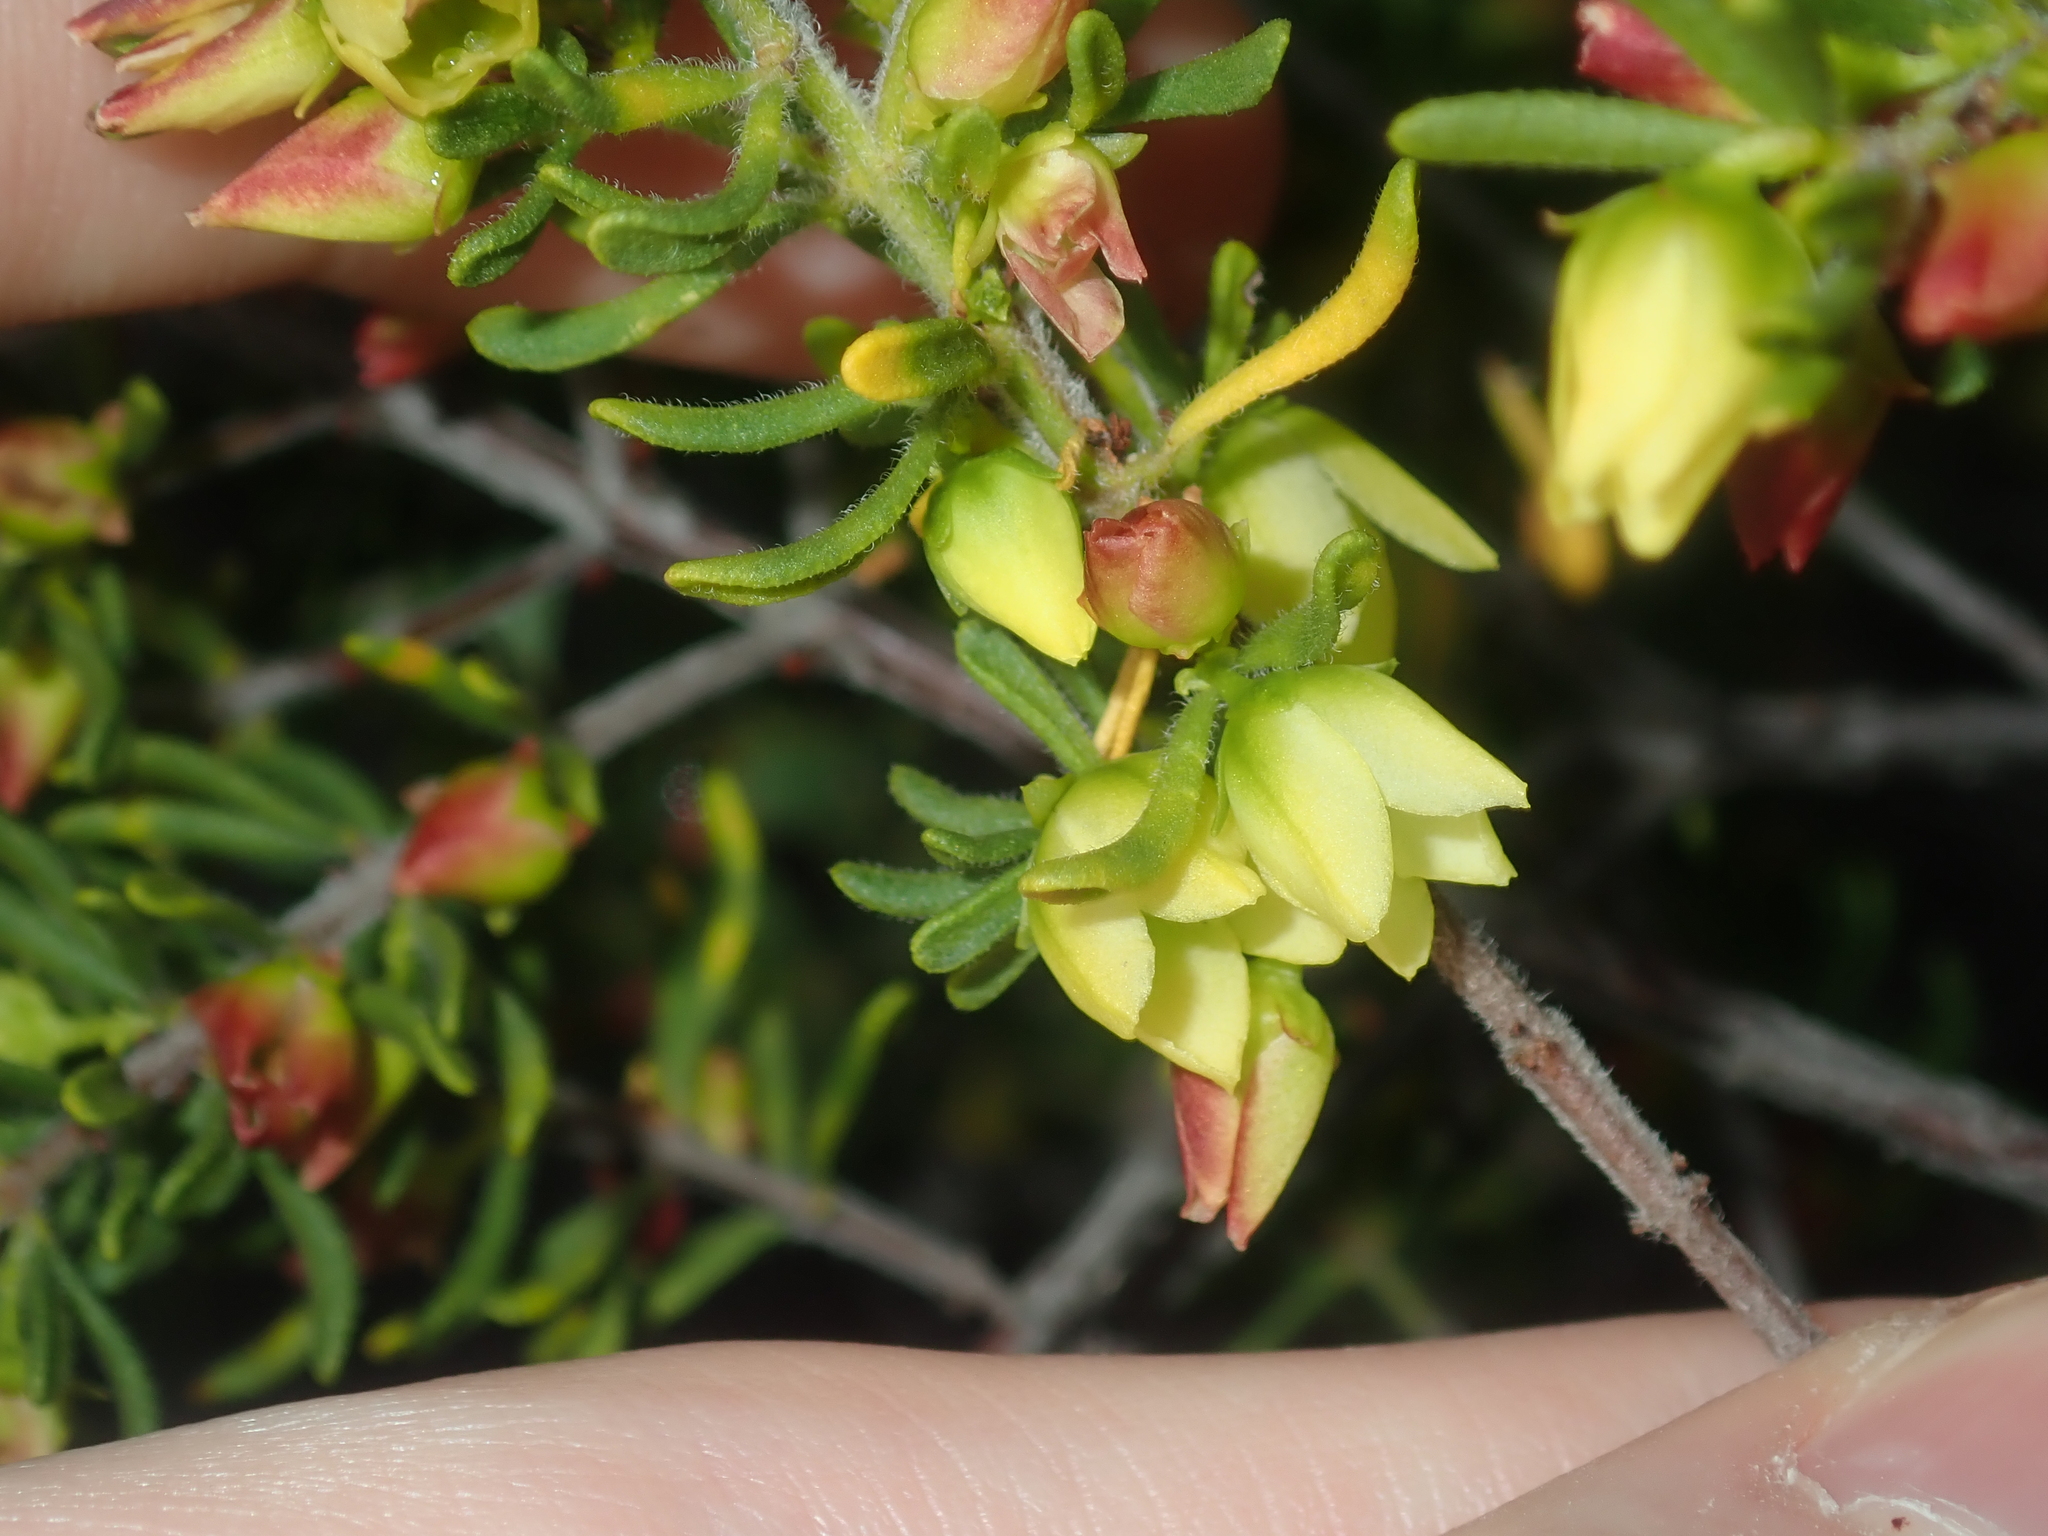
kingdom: Plantae
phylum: Tracheophyta
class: Magnoliopsida
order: Sapindales
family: Rutaceae
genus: Boronia
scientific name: Boronia purdieana
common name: Winter boronia
